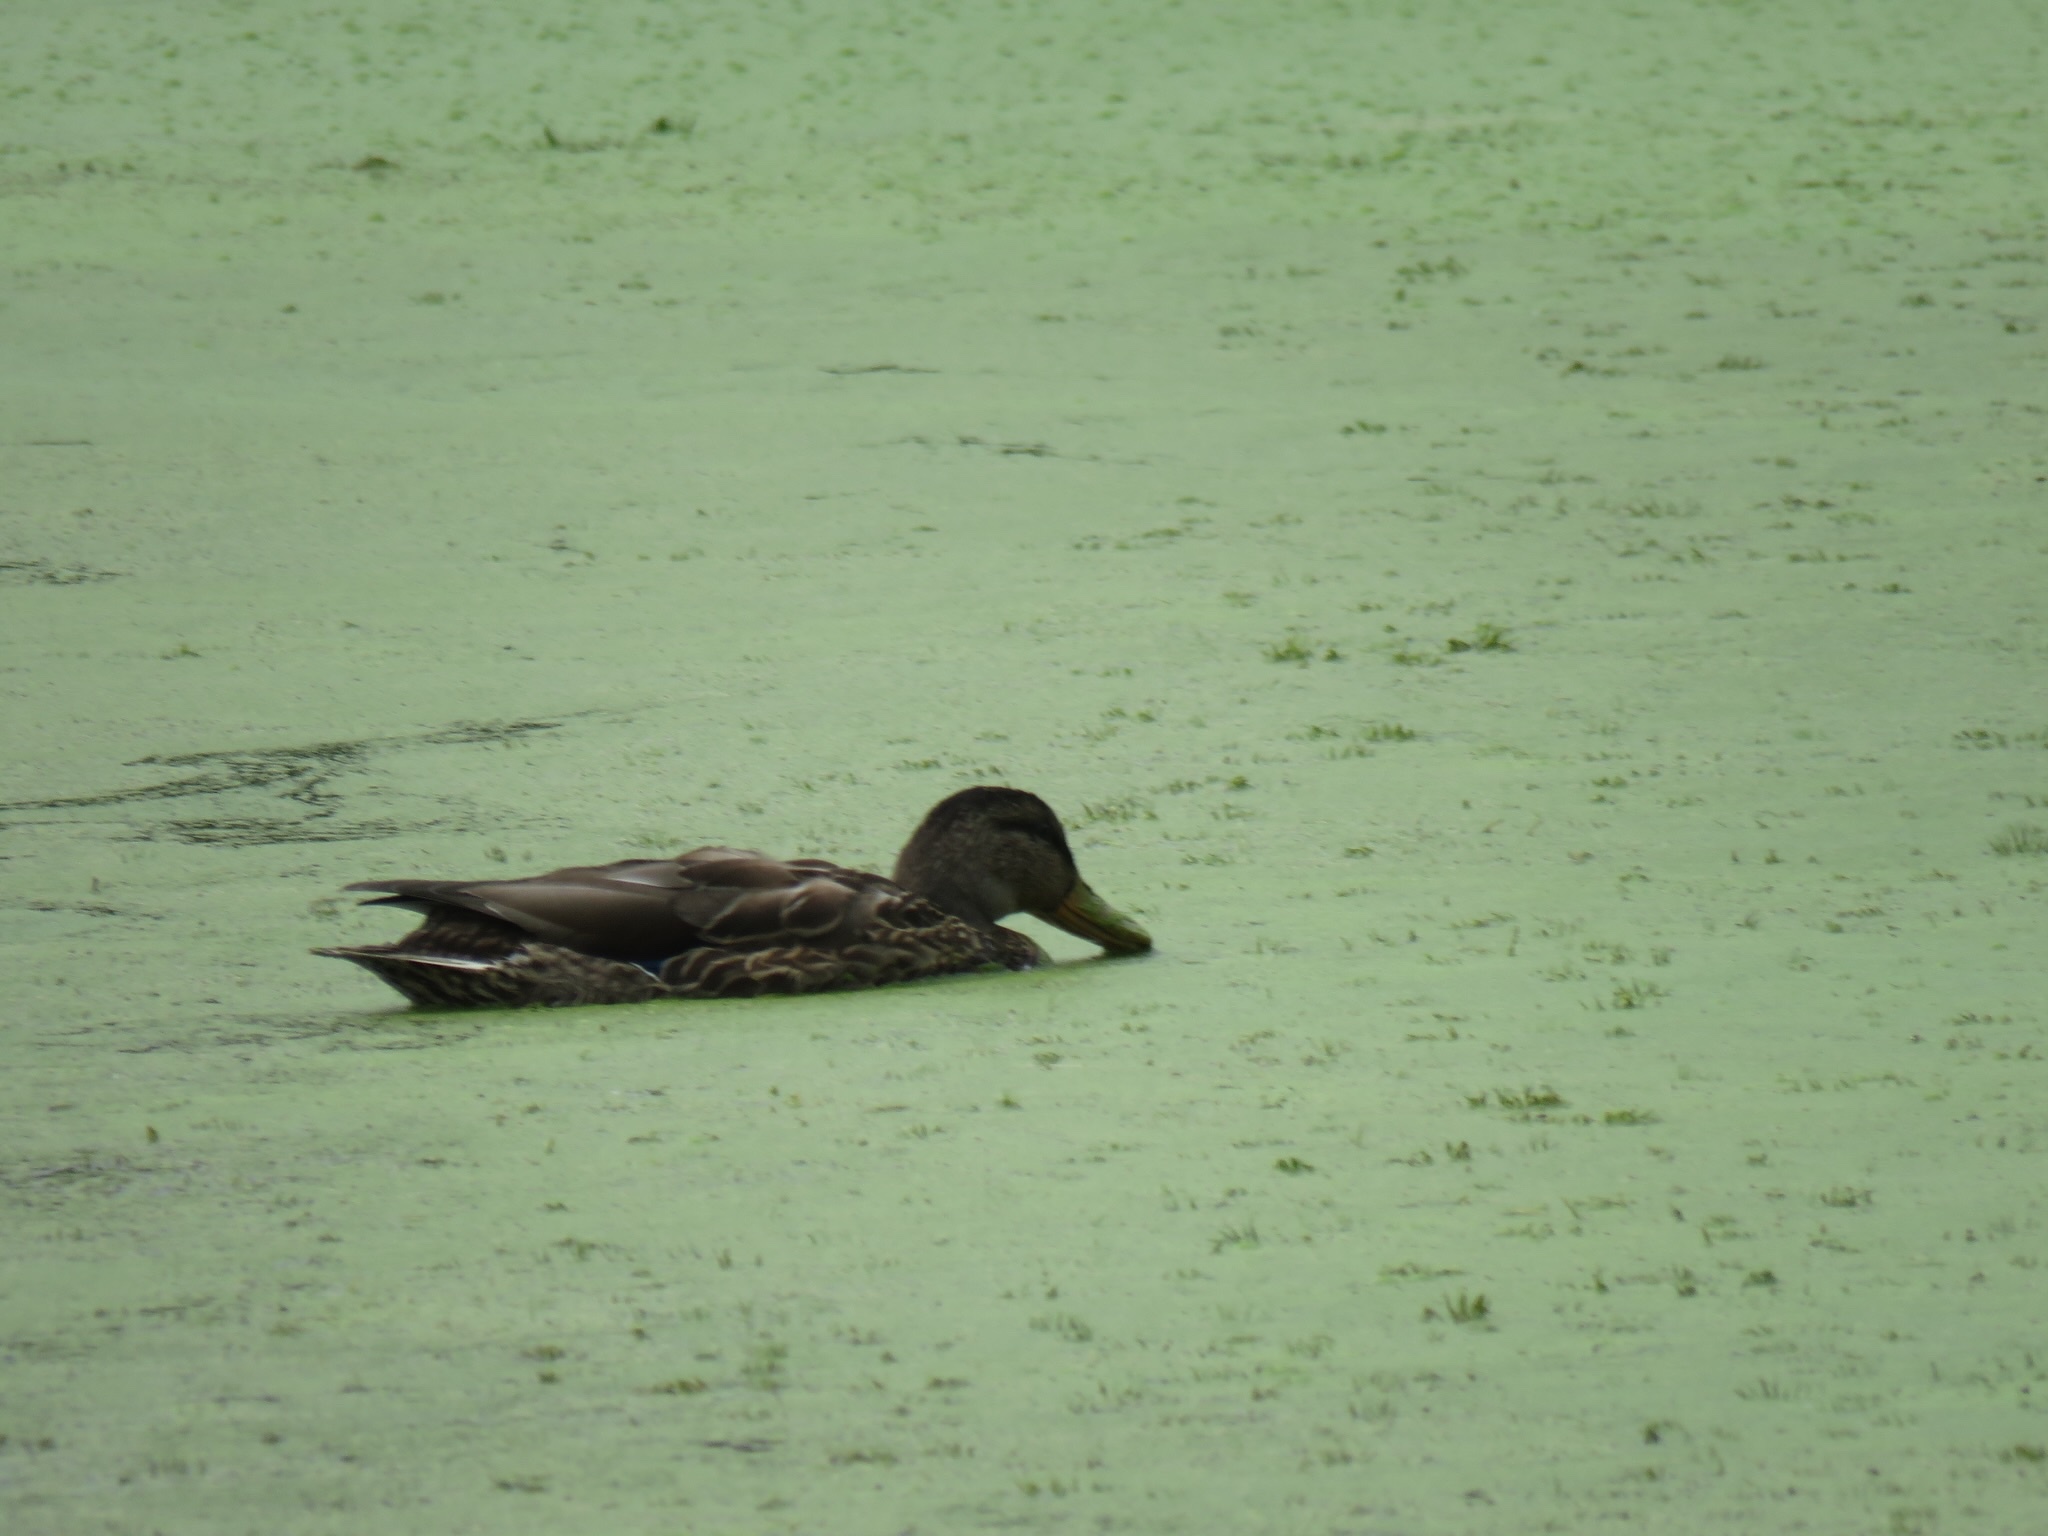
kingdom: Animalia
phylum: Chordata
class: Aves
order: Anseriformes
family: Anatidae
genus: Anas
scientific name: Anas platyrhynchos
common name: Mallard
